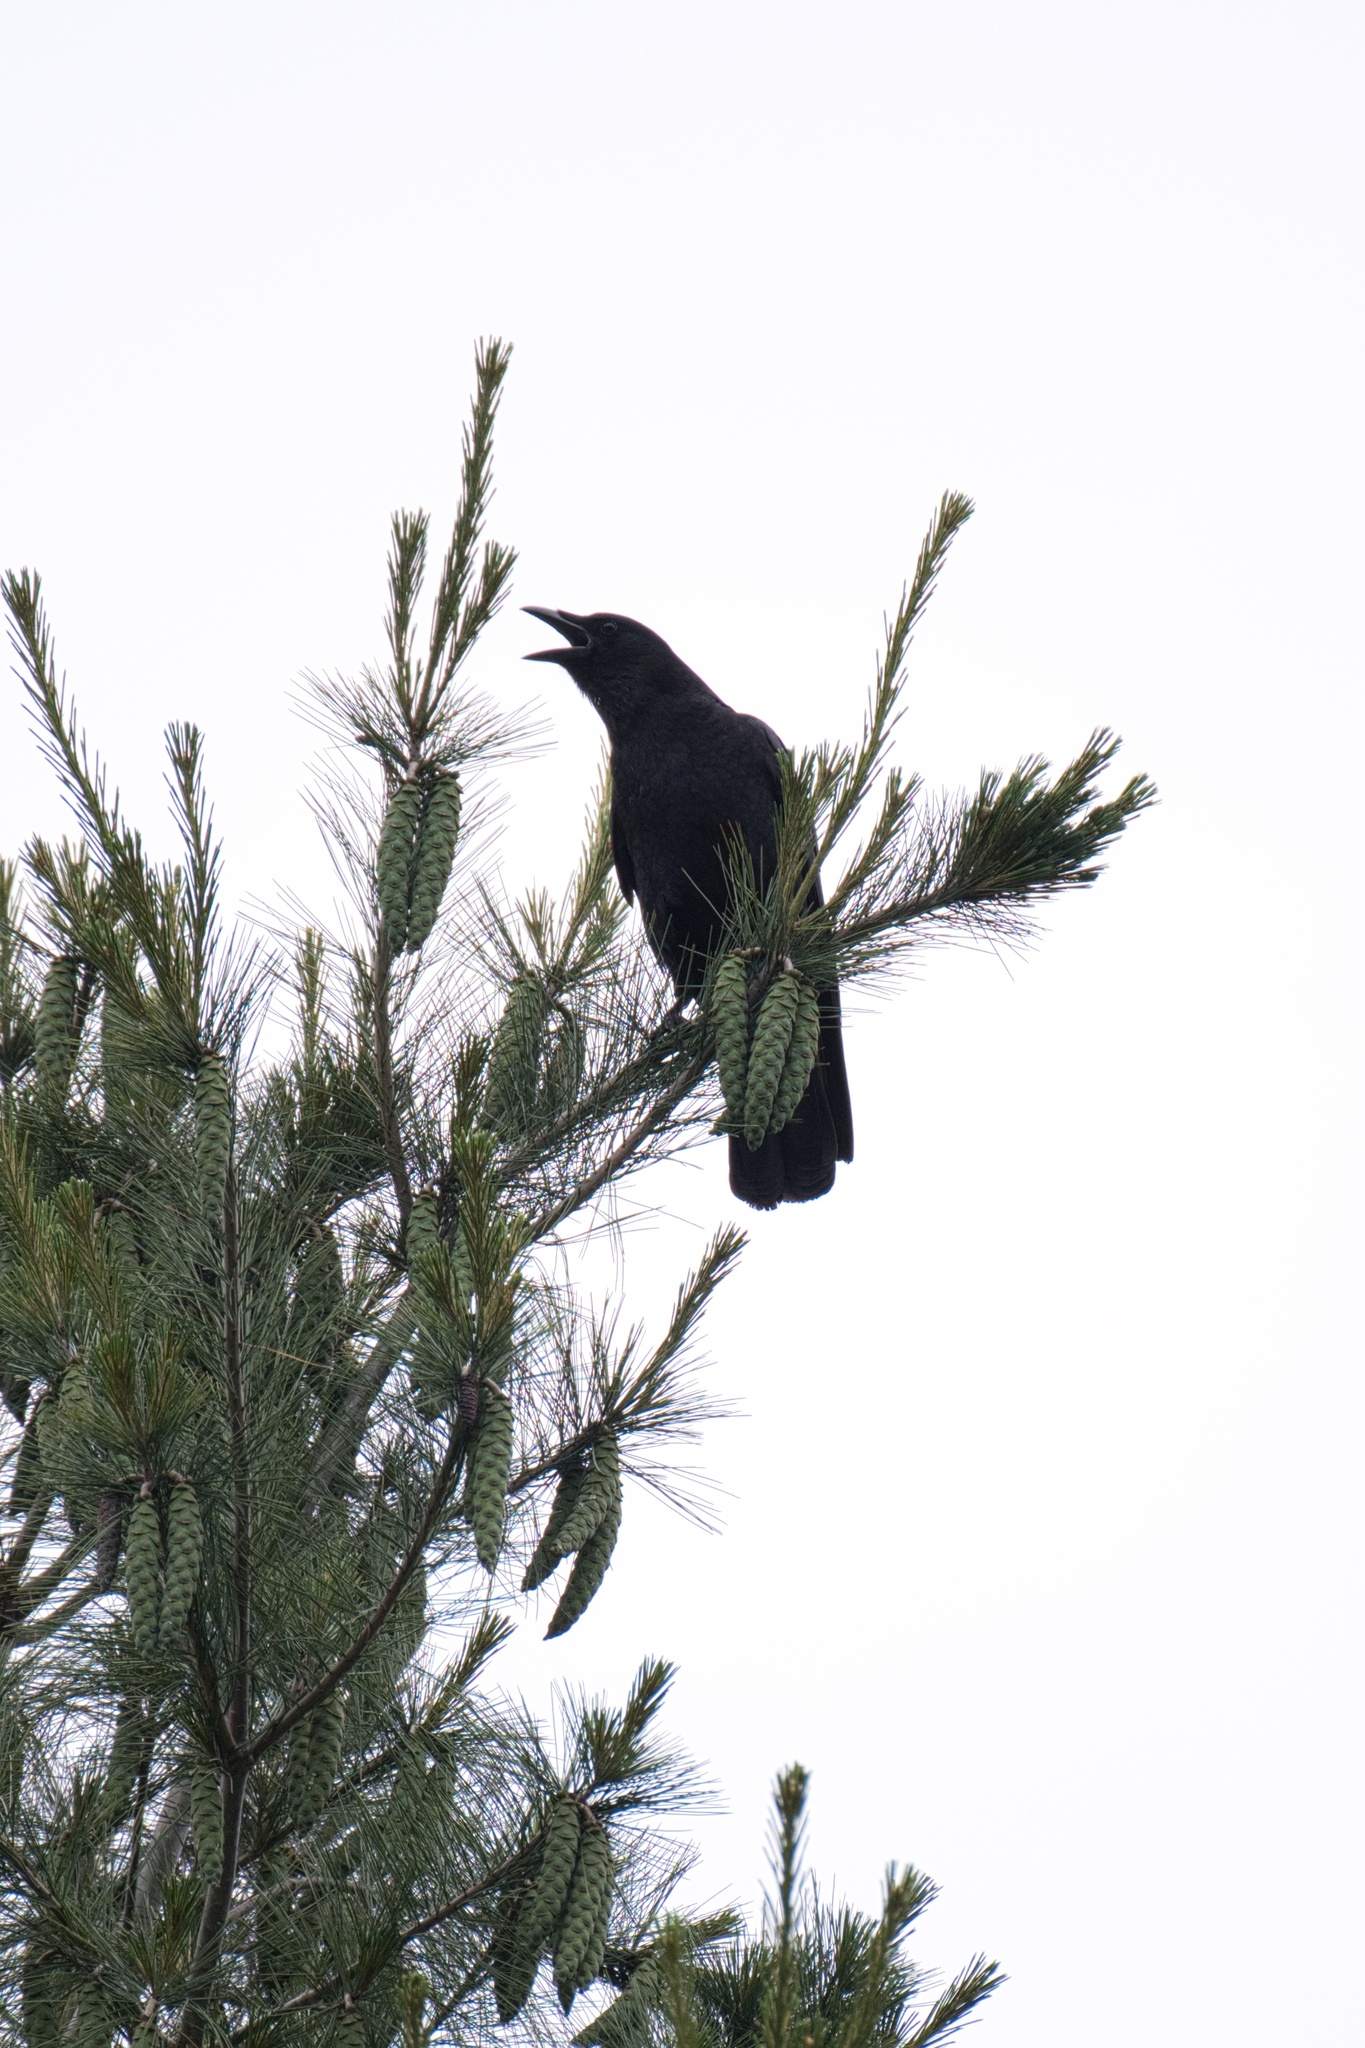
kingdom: Animalia
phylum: Chordata
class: Aves
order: Passeriformes
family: Corvidae
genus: Corvus
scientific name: Corvus brachyrhynchos
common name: American crow
